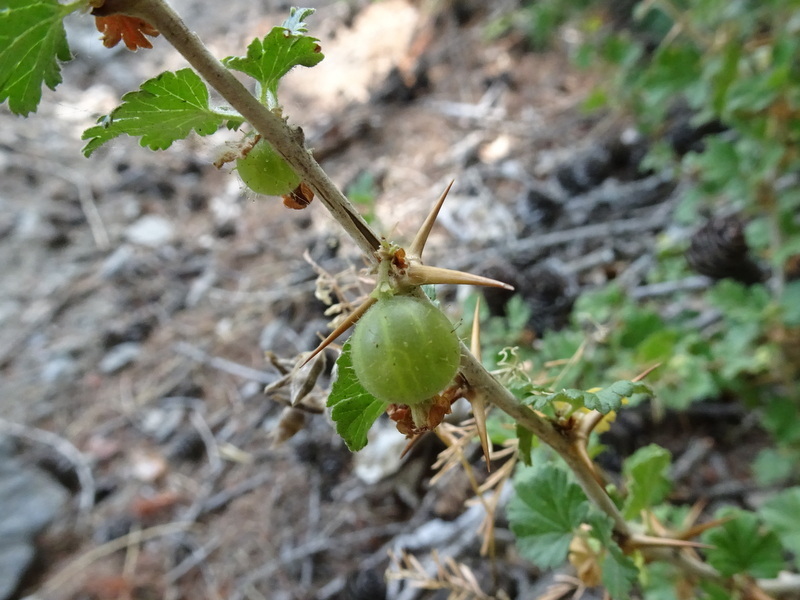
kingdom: Plantae
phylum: Tracheophyta
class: Magnoliopsida
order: Saxifragales
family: Grossulariaceae
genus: Ribes
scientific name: Ribes uva-crispa
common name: Gooseberry
